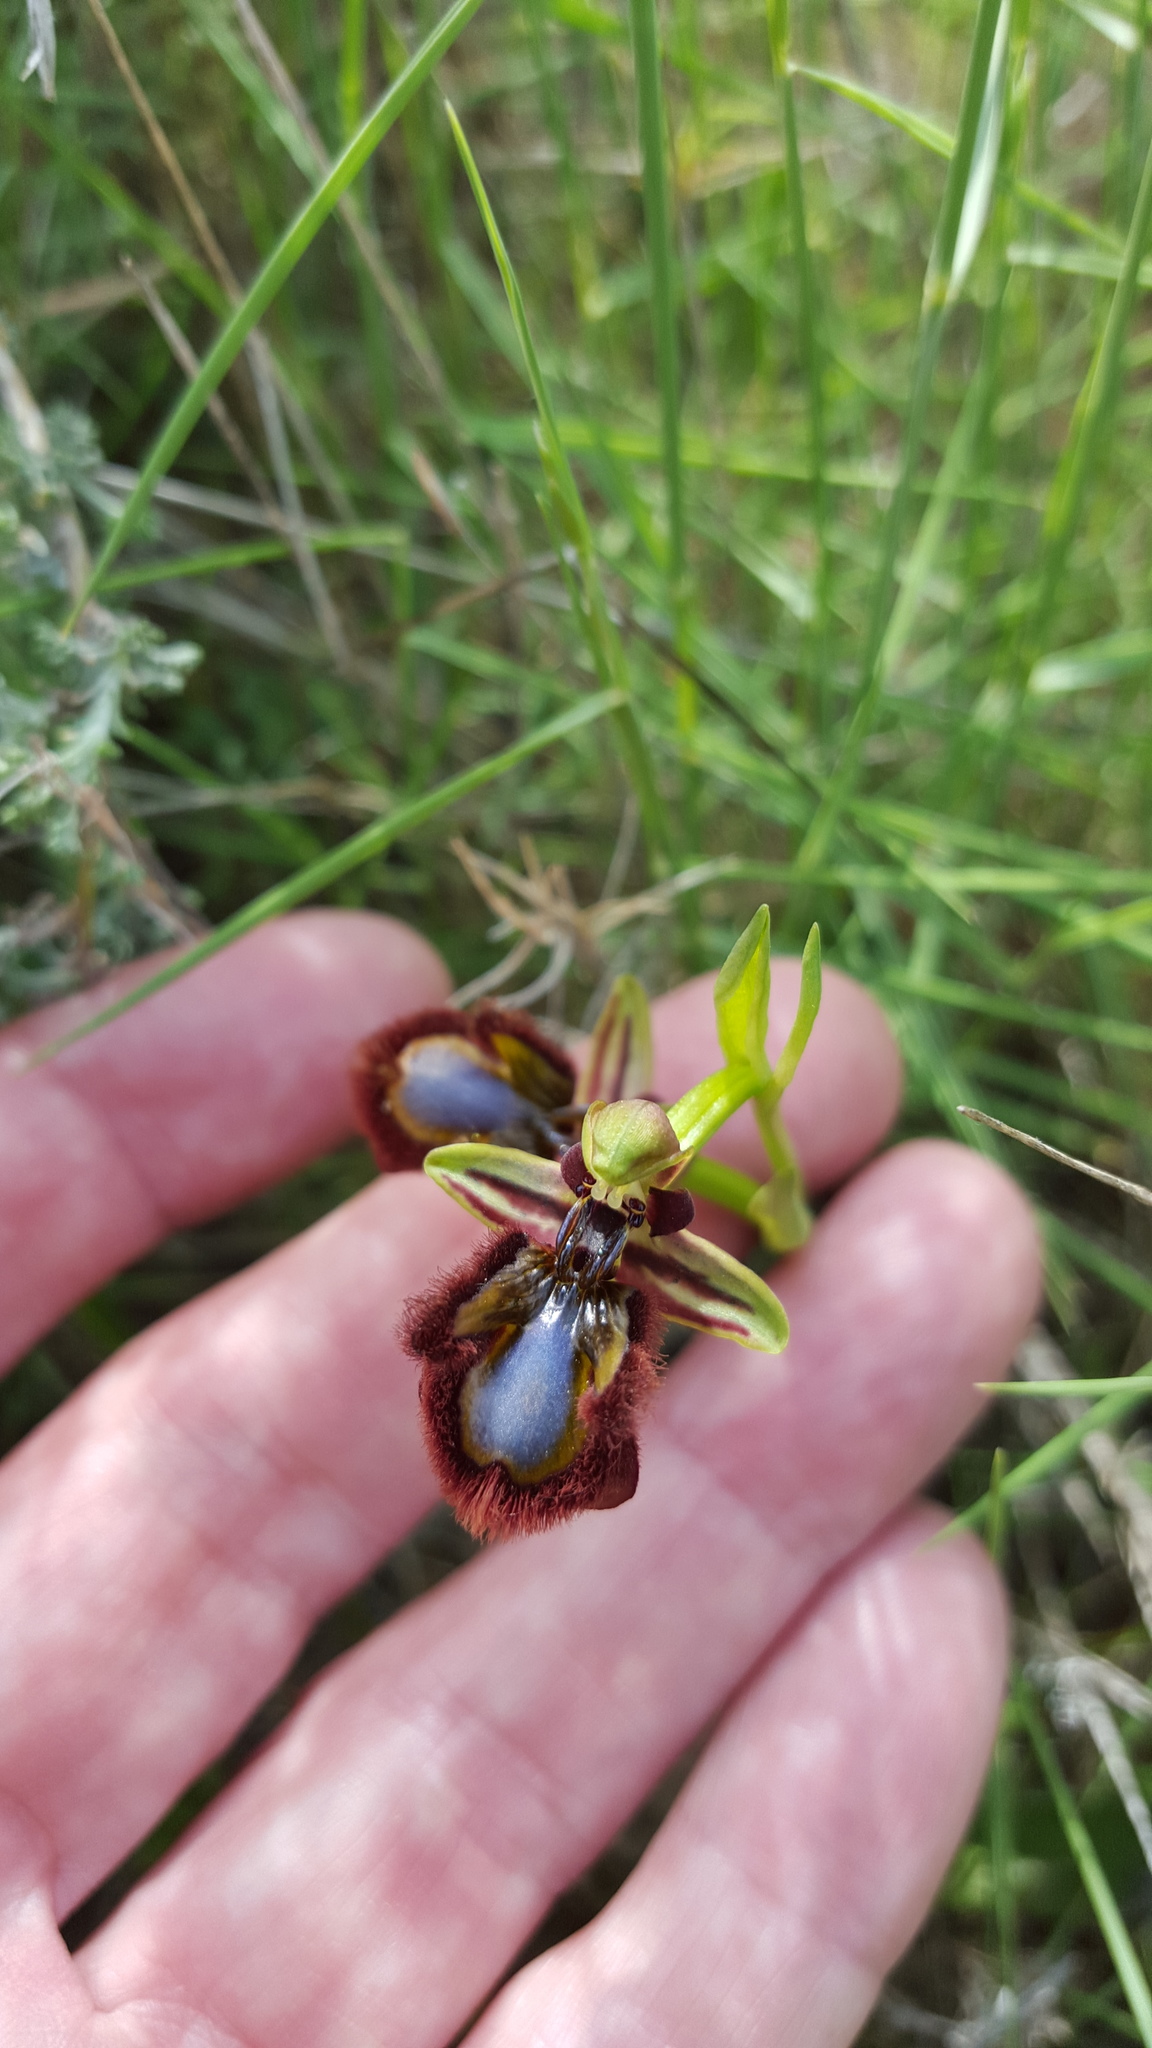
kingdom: Plantae
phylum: Tracheophyta
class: Liliopsida
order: Asparagales
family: Orchidaceae
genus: Ophrys
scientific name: Ophrys speculum
